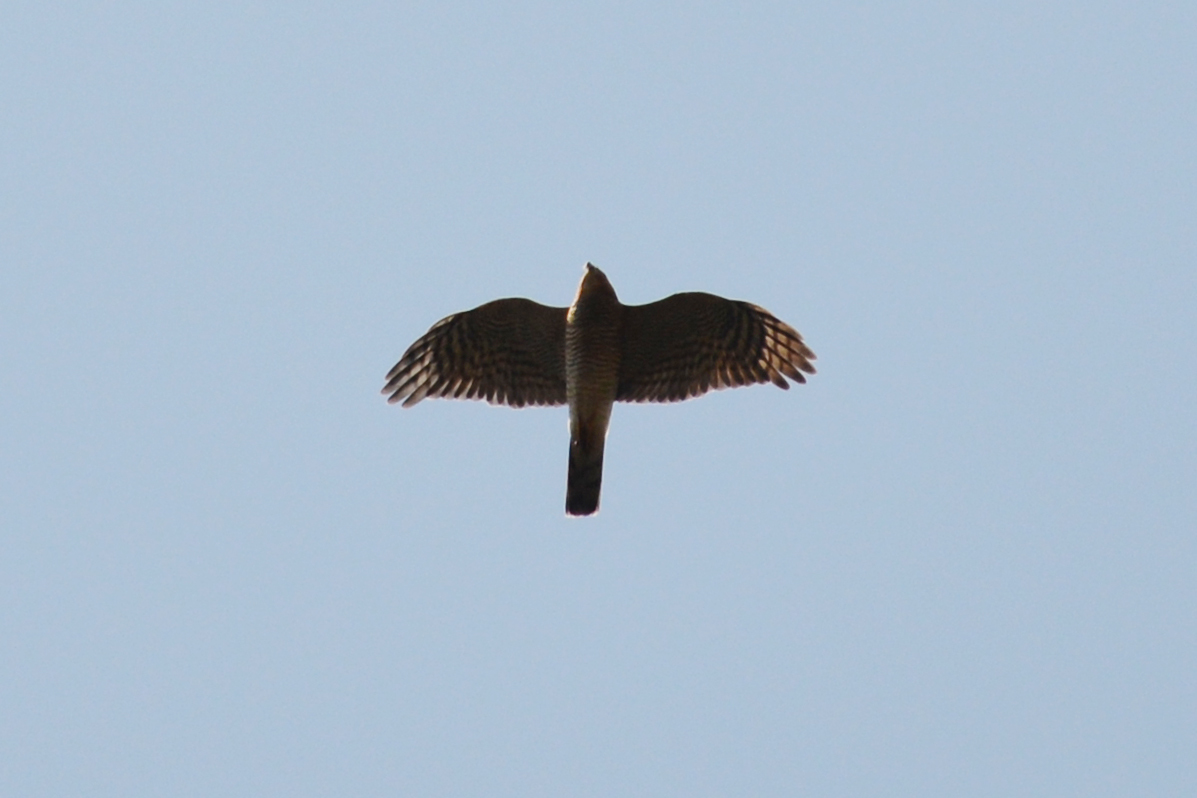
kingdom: Animalia
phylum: Chordata
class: Aves
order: Accipitriformes
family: Accipitridae
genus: Accipiter
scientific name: Accipiter nisus
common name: Eurasian sparrowhawk
